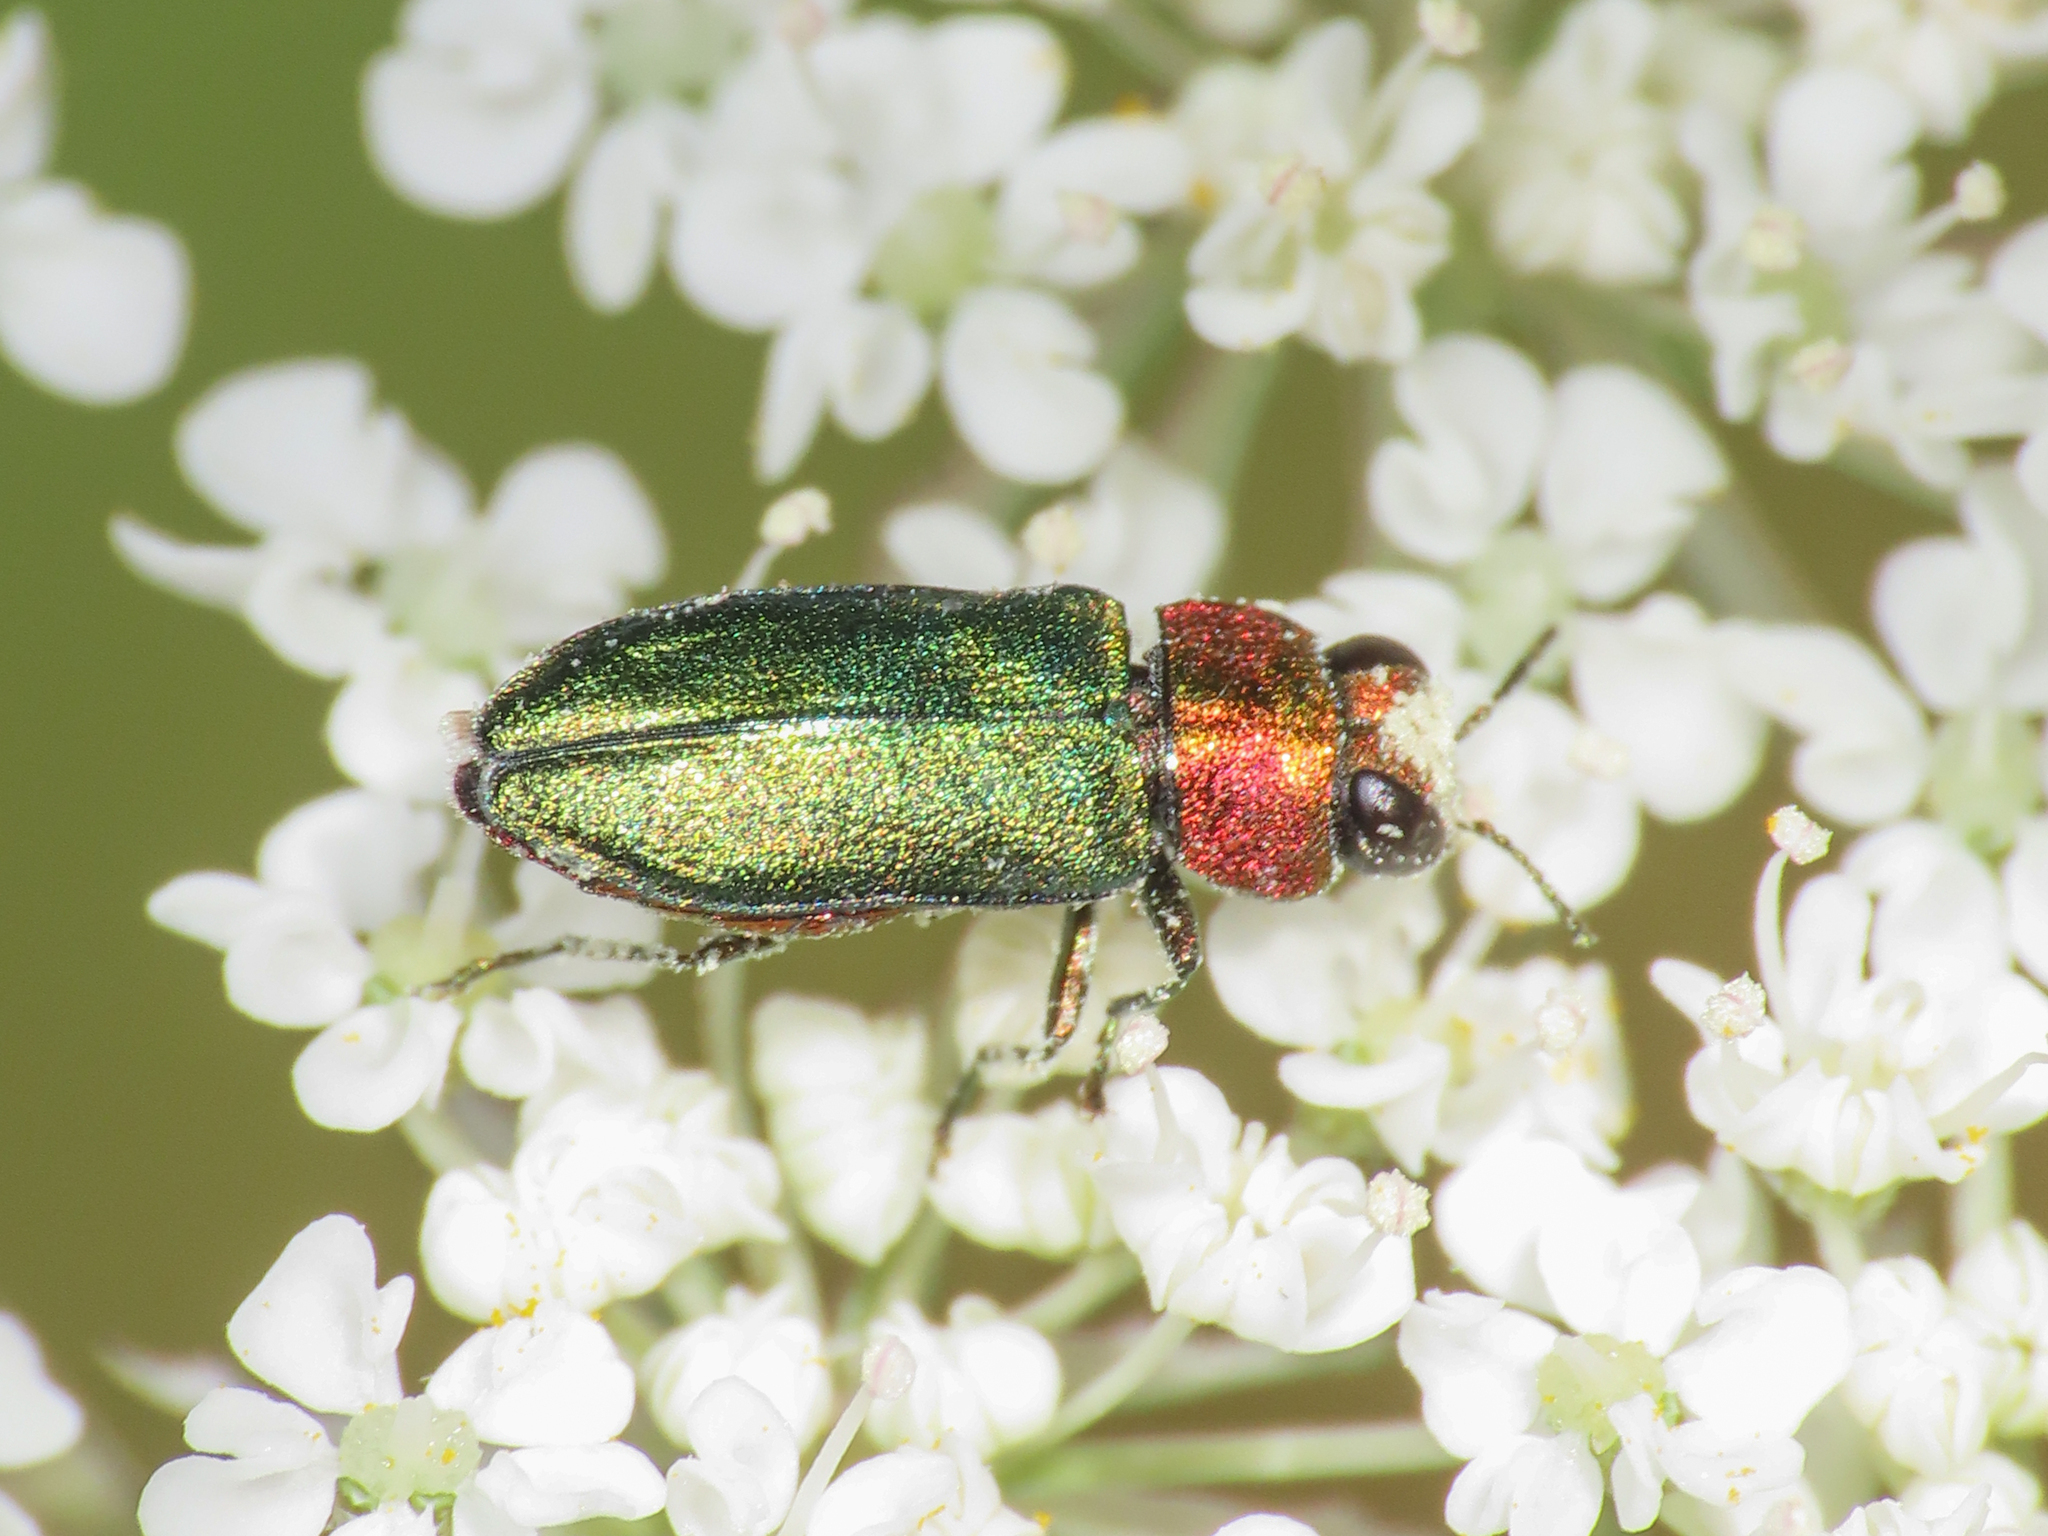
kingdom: Animalia
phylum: Arthropoda
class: Insecta
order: Coleoptera
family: Buprestidae
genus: Anthaxia
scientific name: Anthaxia nitidula
